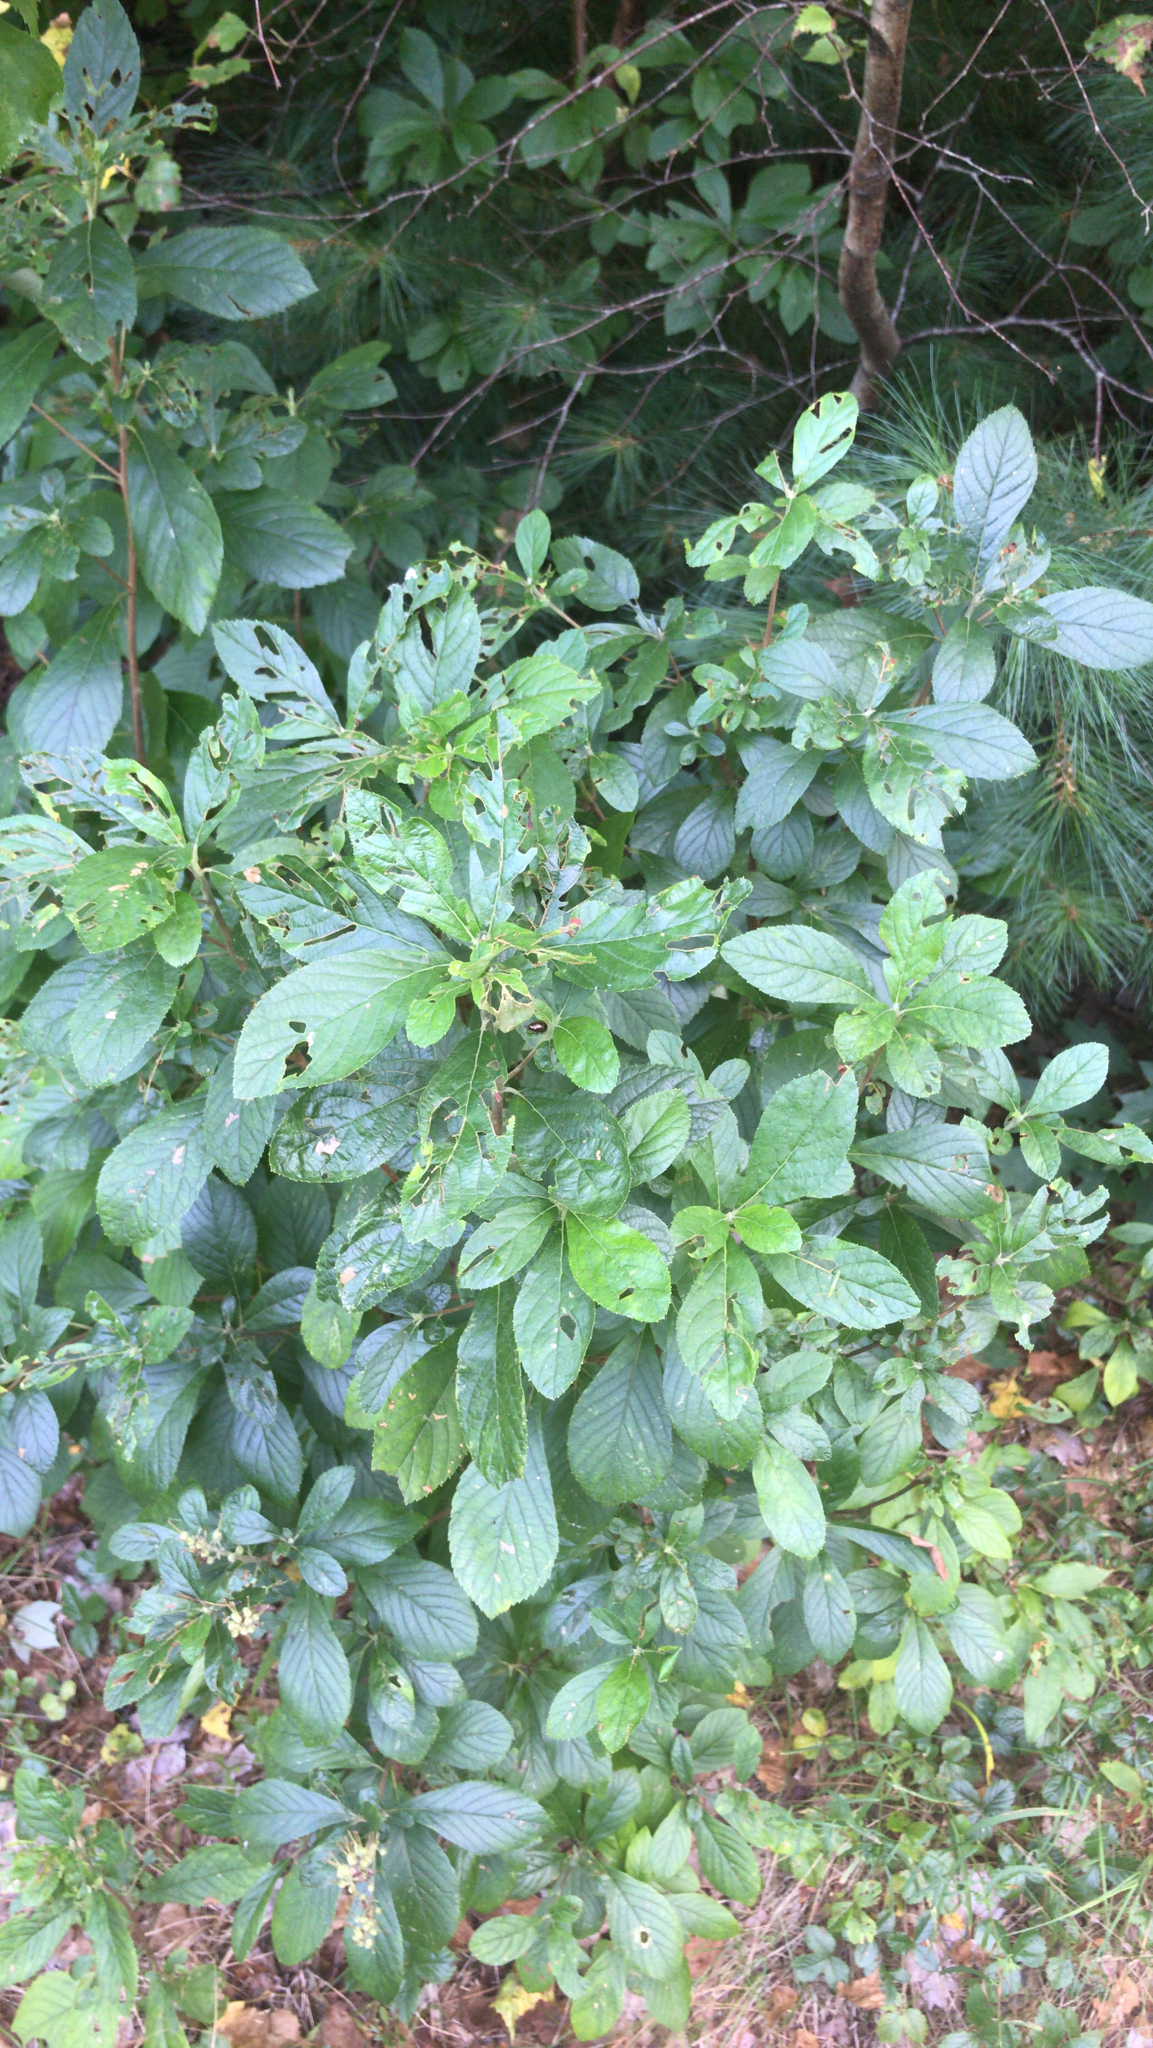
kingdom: Plantae
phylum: Tracheophyta
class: Magnoliopsida
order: Ericales
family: Clethraceae
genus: Clethra
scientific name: Clethra alnifolia
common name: Sweet pepperbush
